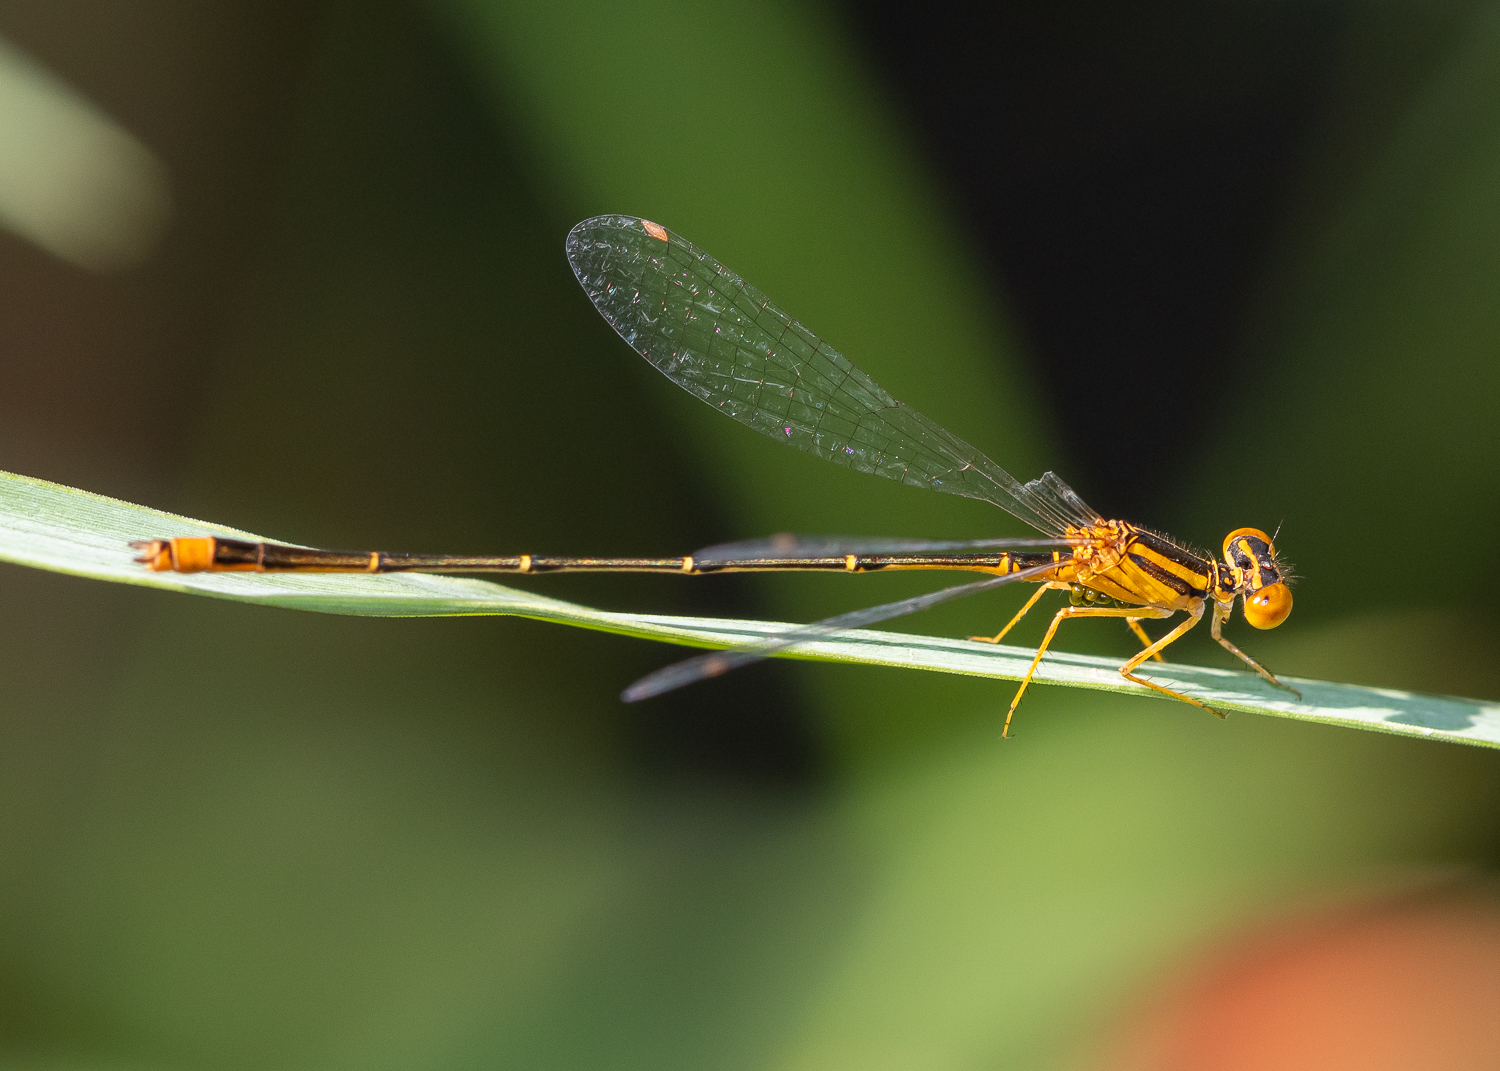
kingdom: Animalia
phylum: Arthropoda
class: Insecta
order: Odonata
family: Coenagrionidae
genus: Enallagma
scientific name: Enallagma signatum
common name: Orange bluet
